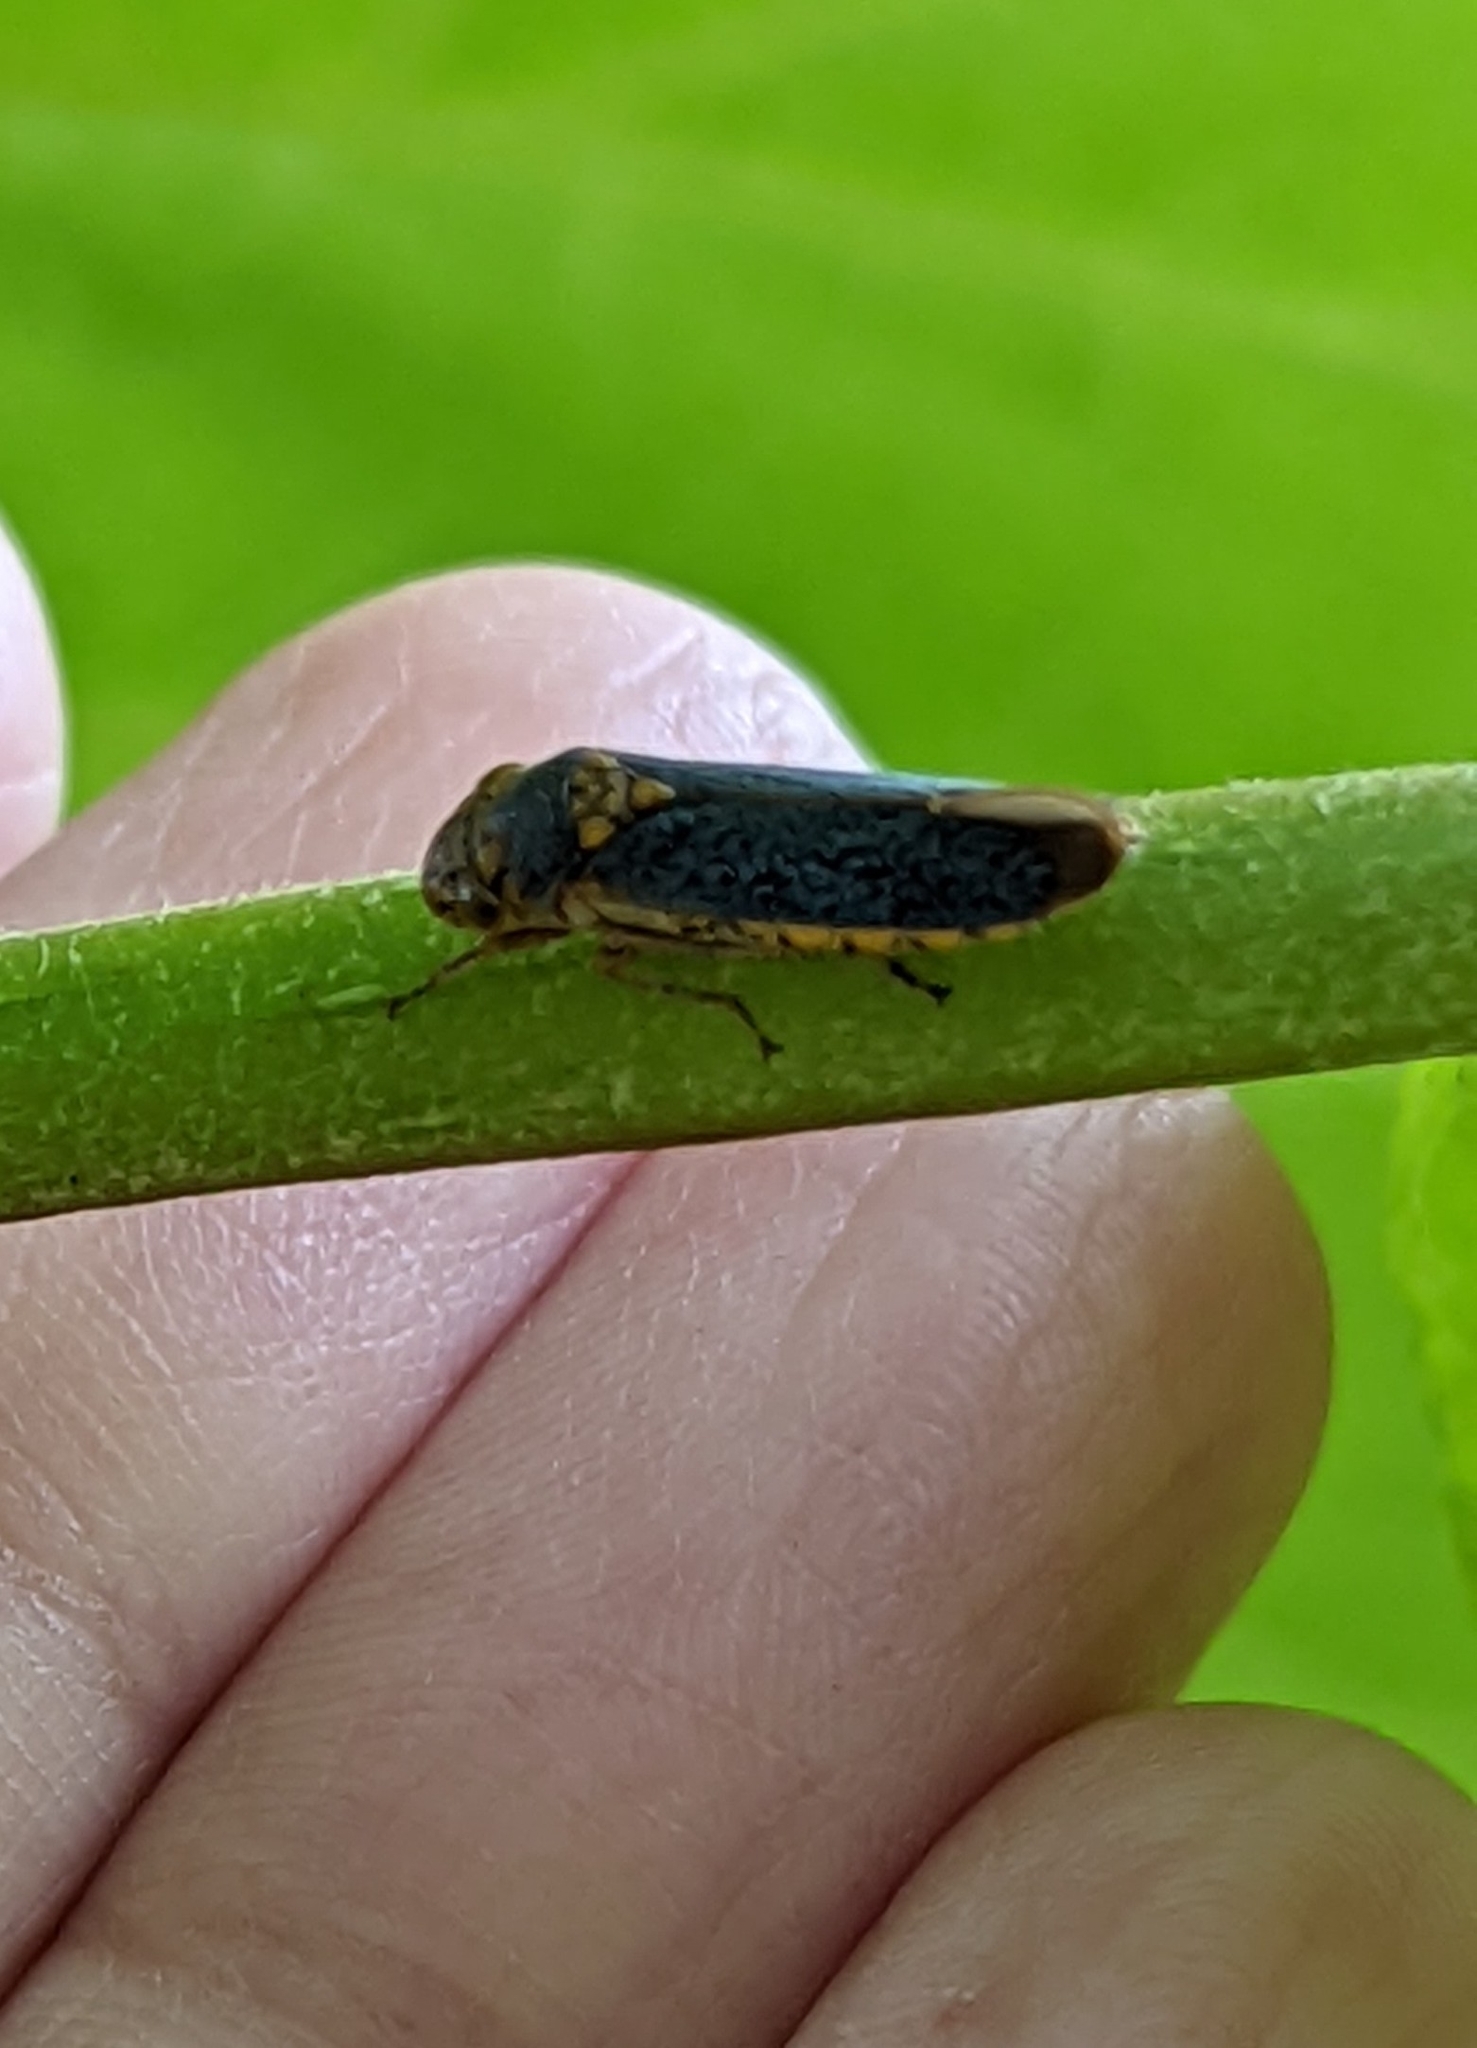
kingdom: Animalia
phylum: Arthropoda
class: Insecta
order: Hemiptera
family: Cicadellidae
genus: Oncometopia
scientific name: Oncometopia orbona
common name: Broad-headed sharpshooter
